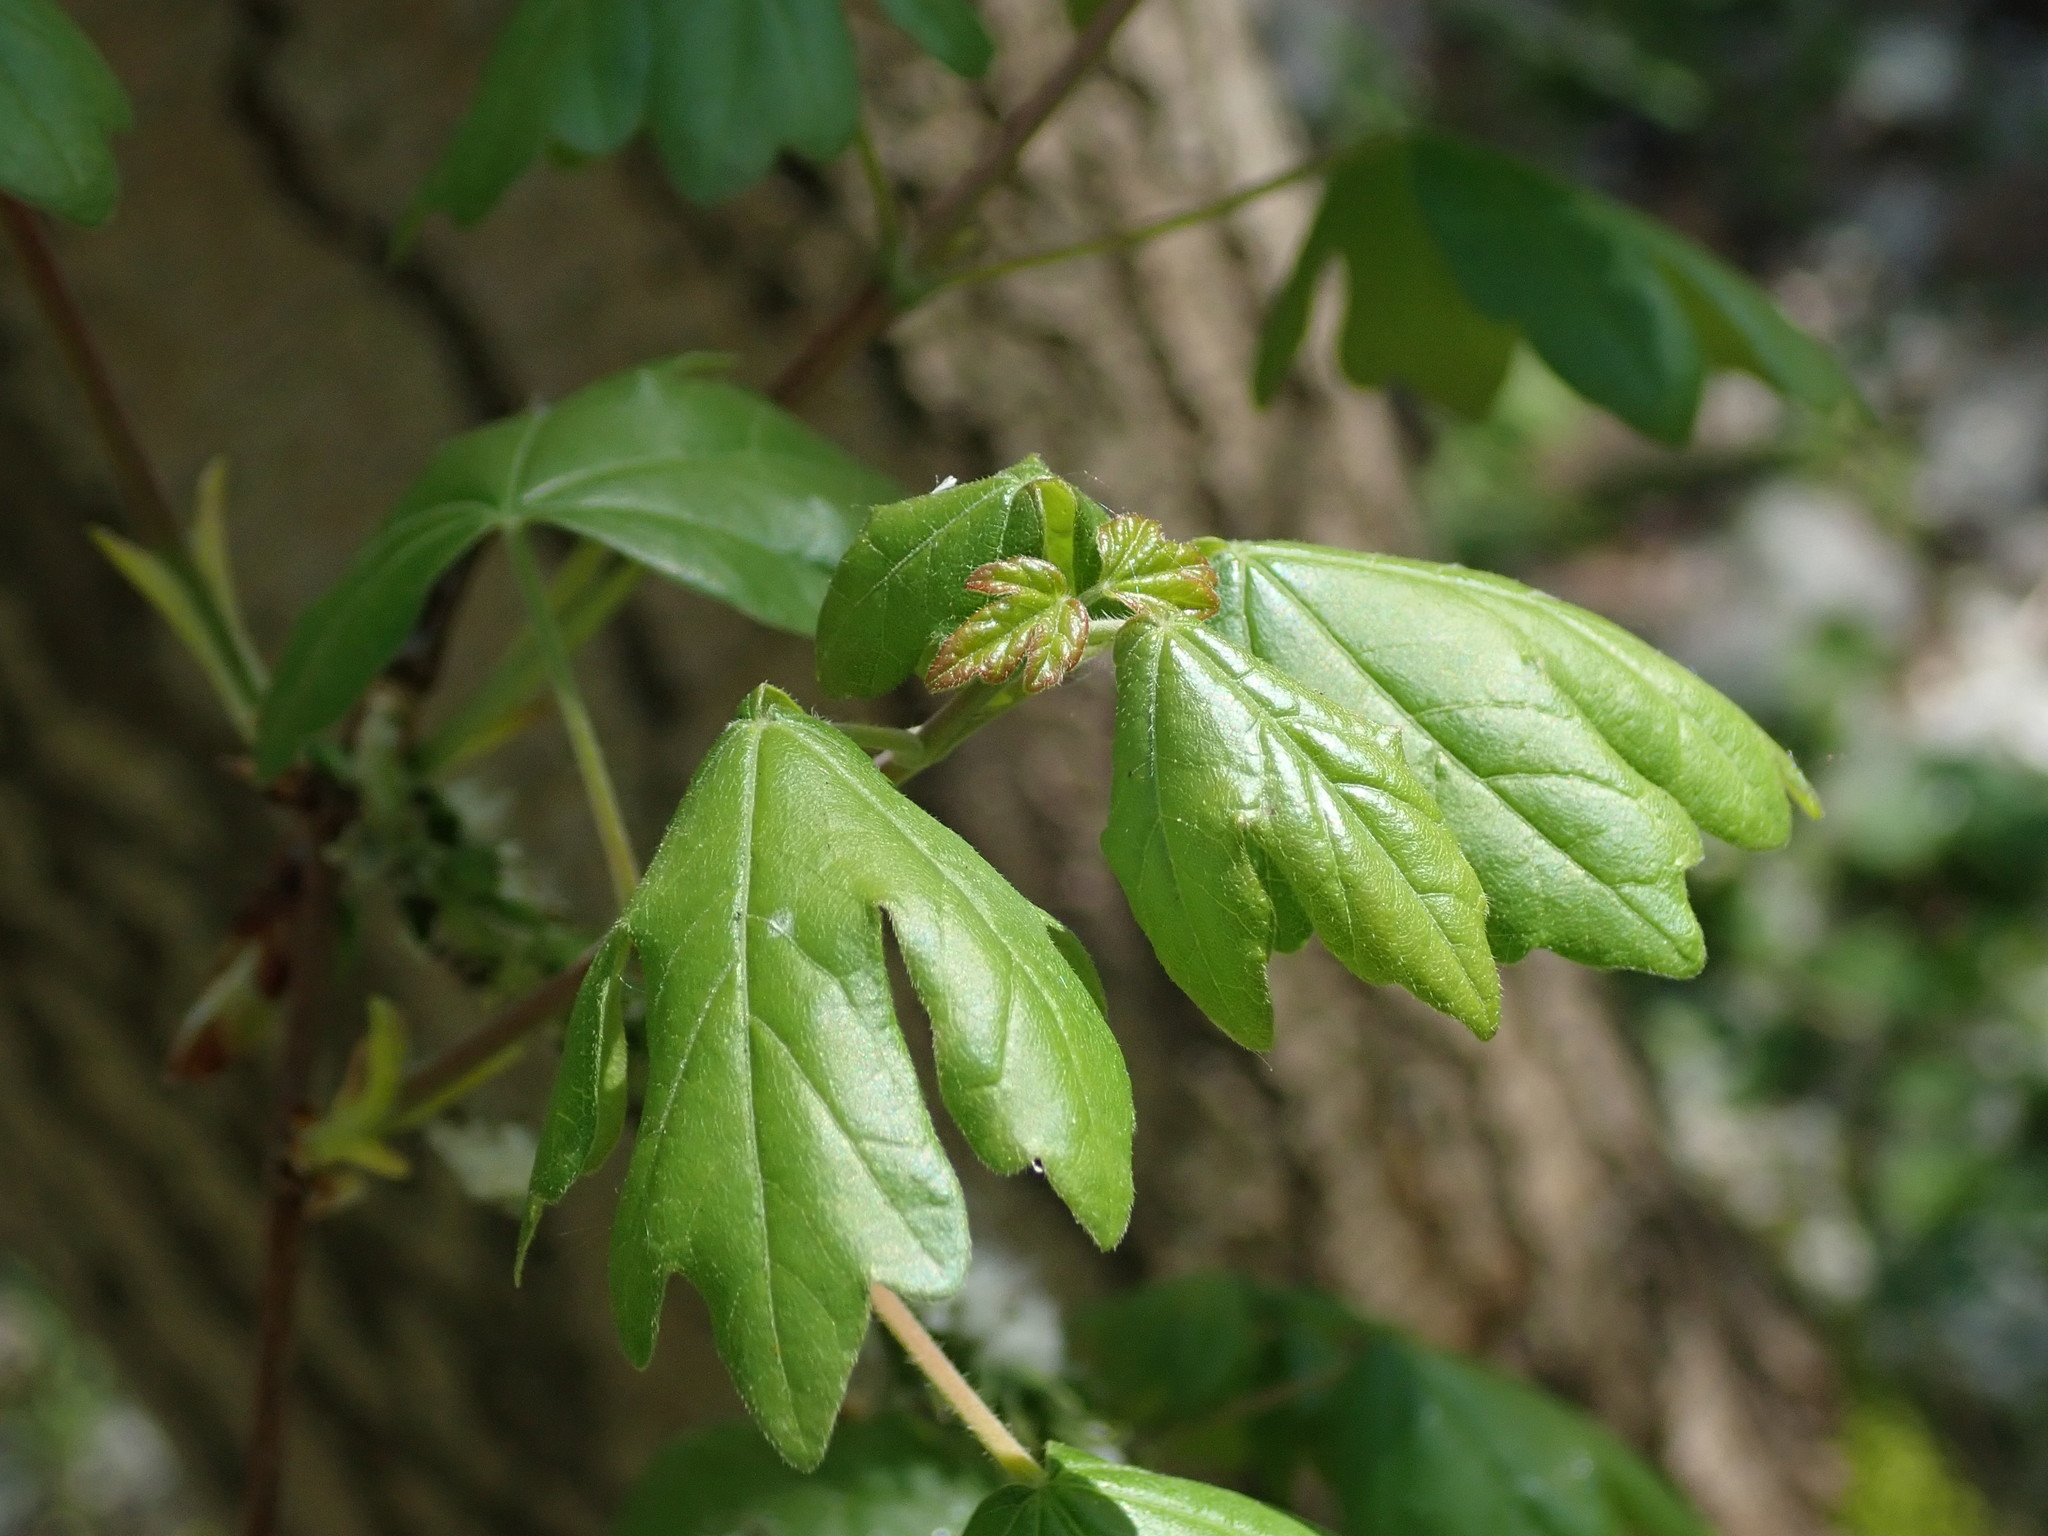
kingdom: Plantae
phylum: Tracheophyta
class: Magnoliopsida
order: Sapindales
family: Sapindaceae
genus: Acer
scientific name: Acer campestre
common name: Field maple
